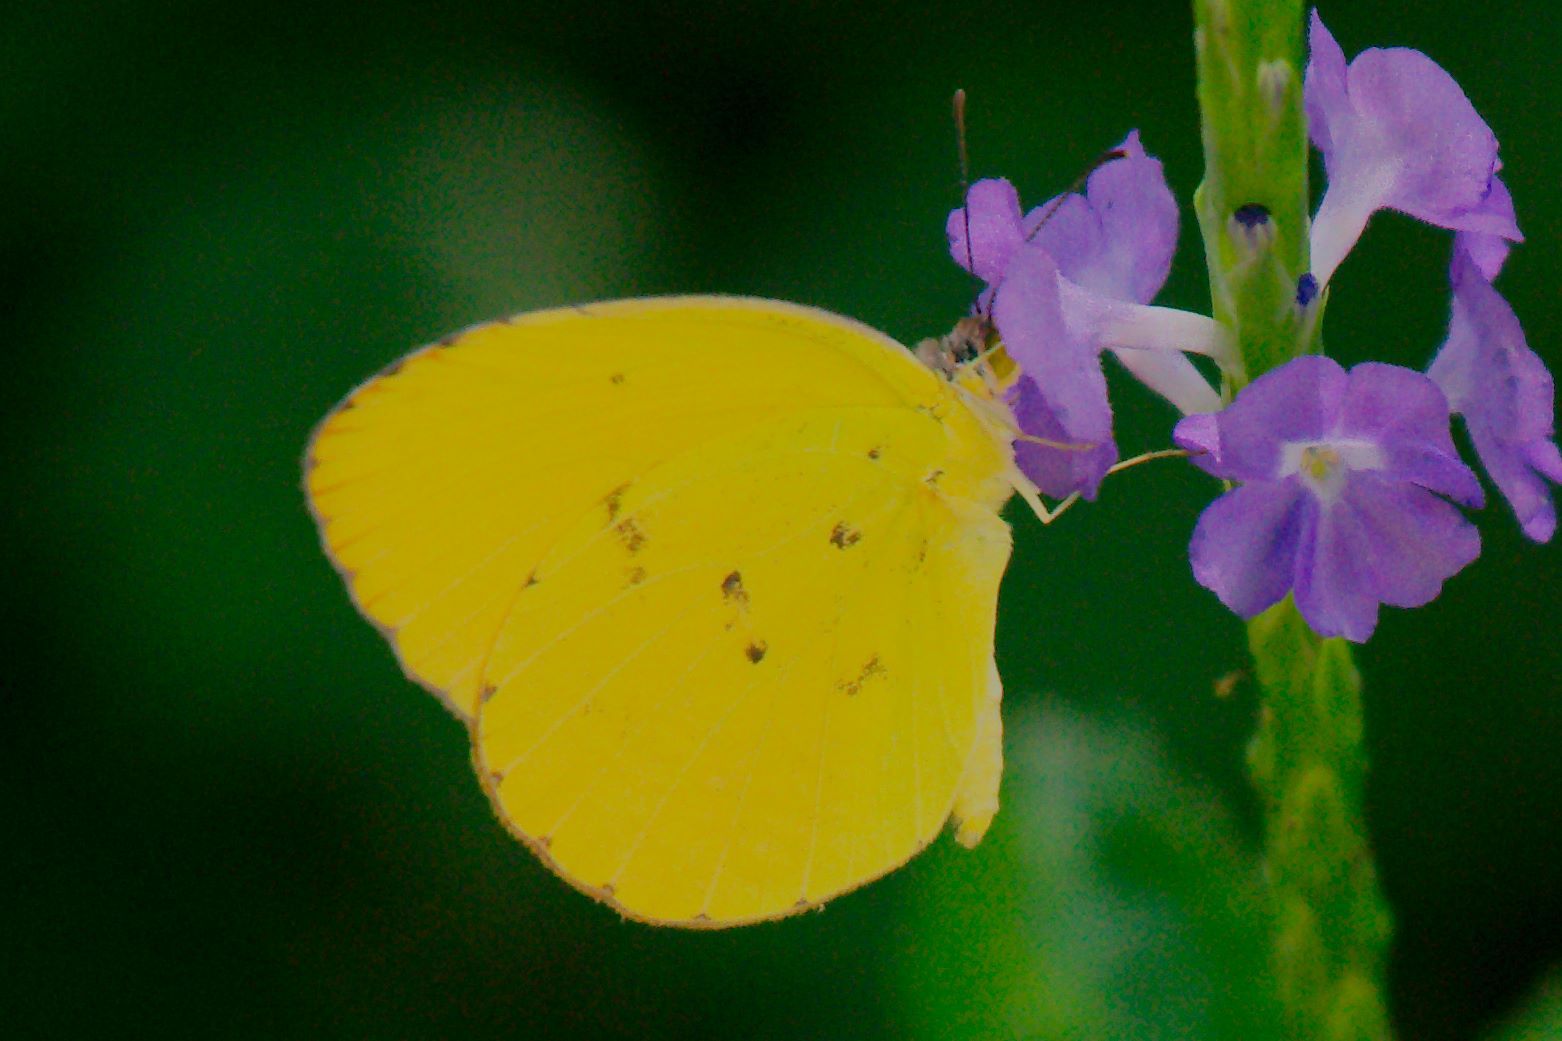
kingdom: Animalia
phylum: Arthropoda
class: Insecta
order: Lepidoptera
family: Pieridae
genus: Pyrisitia
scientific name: Pyrisitia dina
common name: Dina yellow
